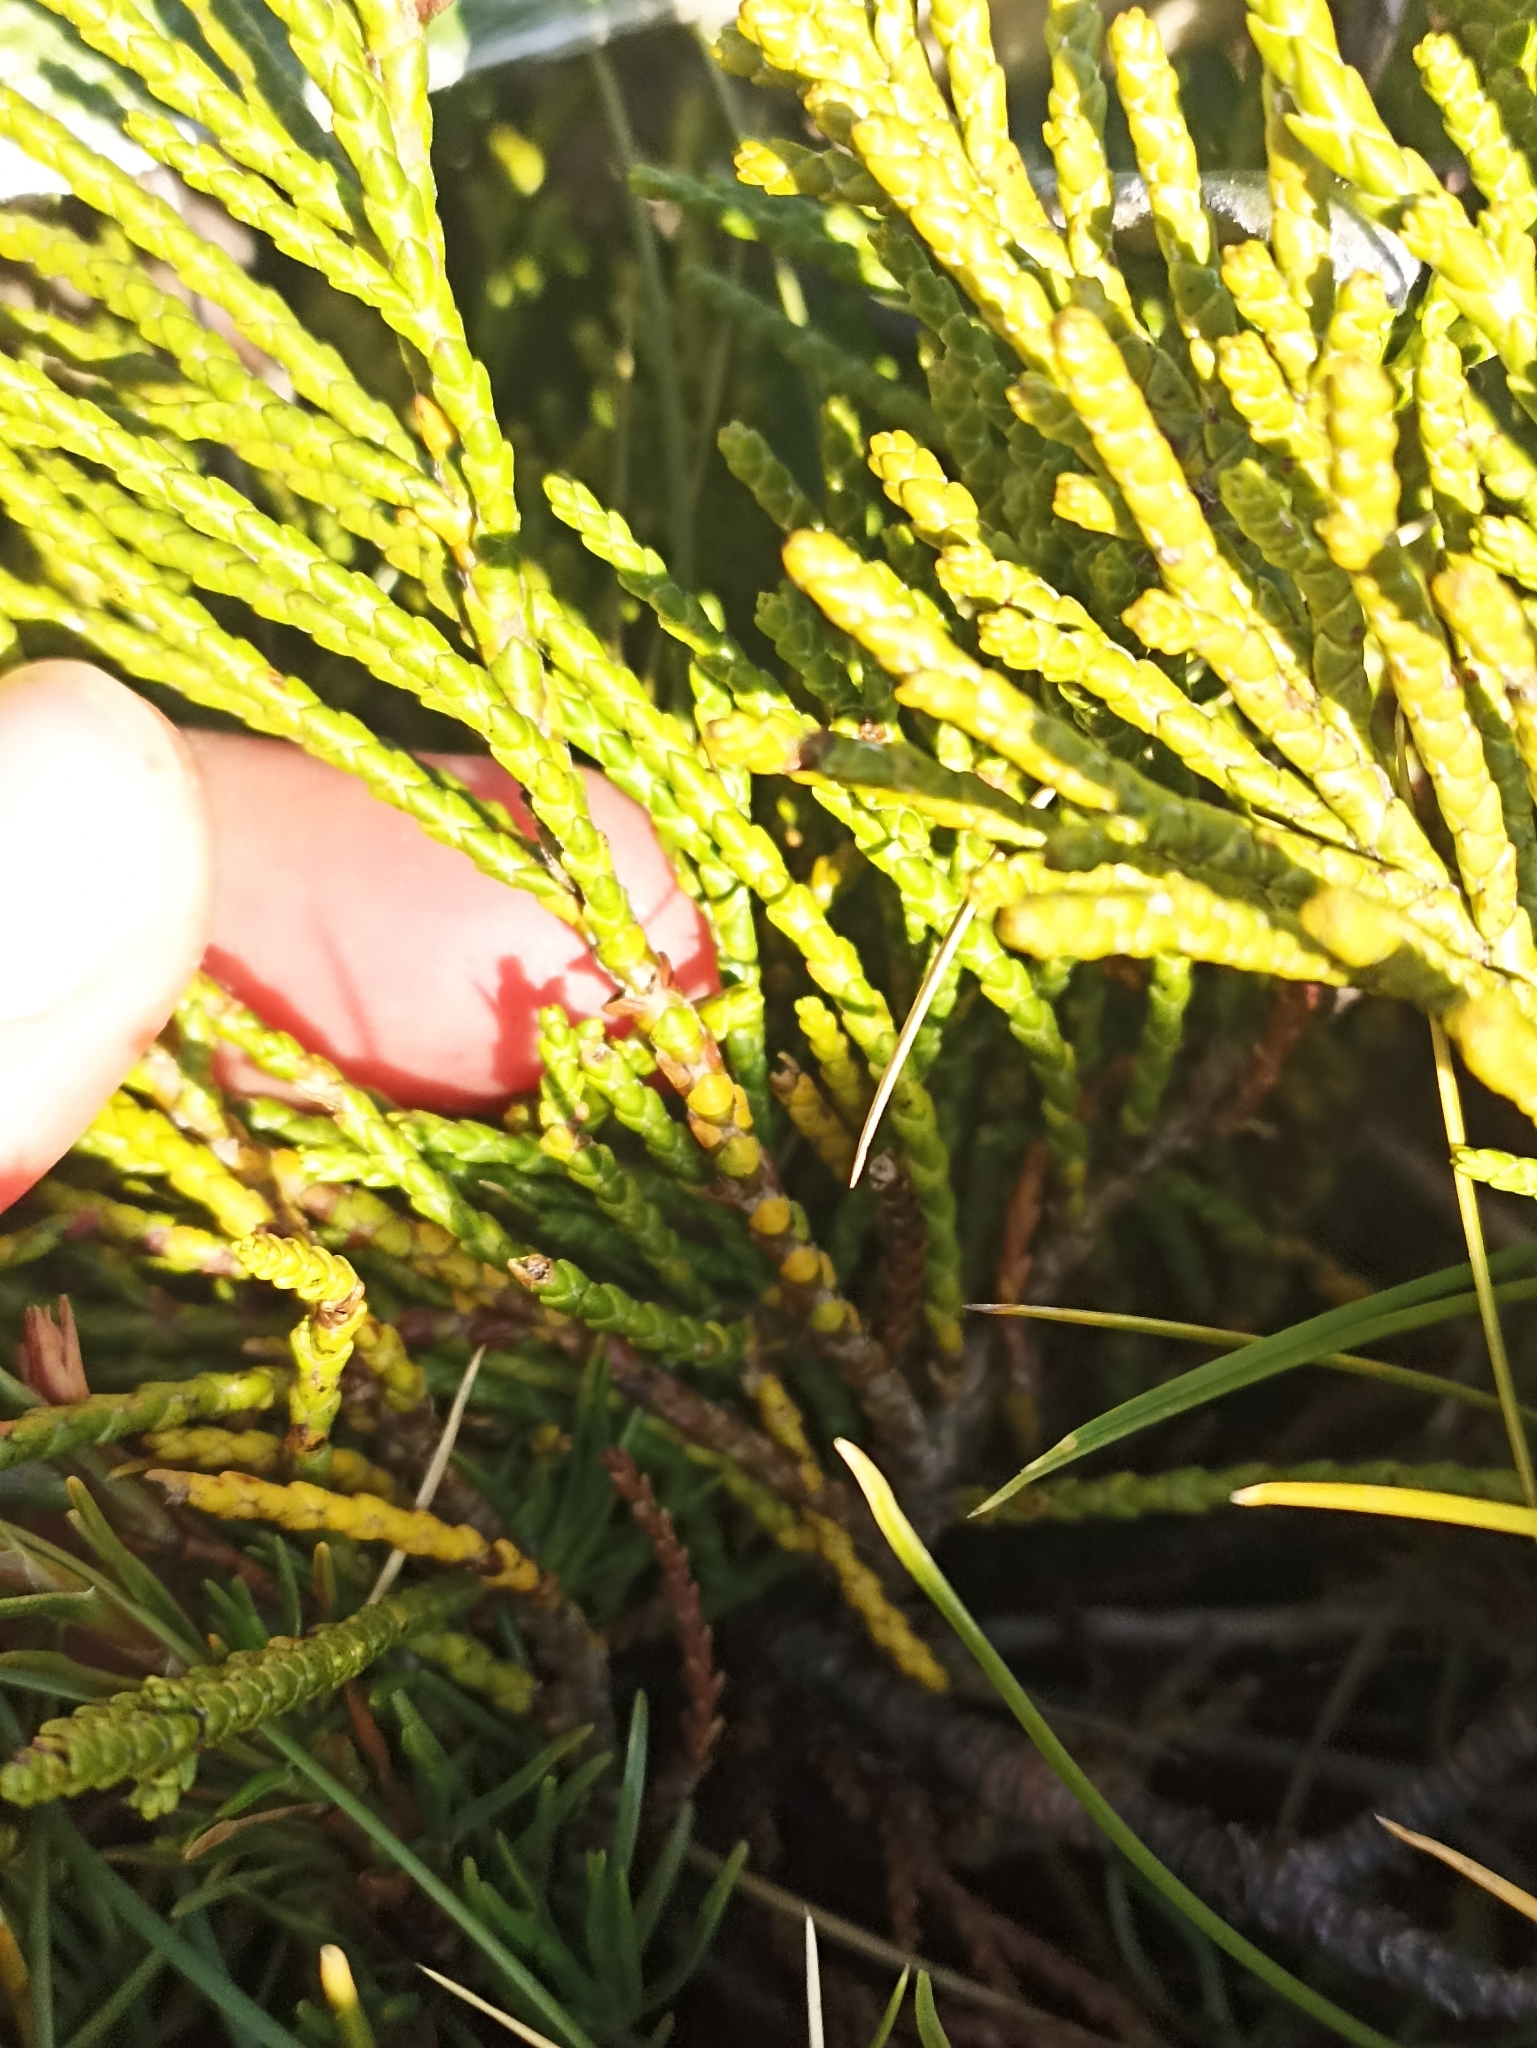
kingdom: Plantae
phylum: Tracheophyta
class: Magnoliopsida
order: Lamiales
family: Plantaginaceae
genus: Veronica
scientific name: Veronica hectorii
